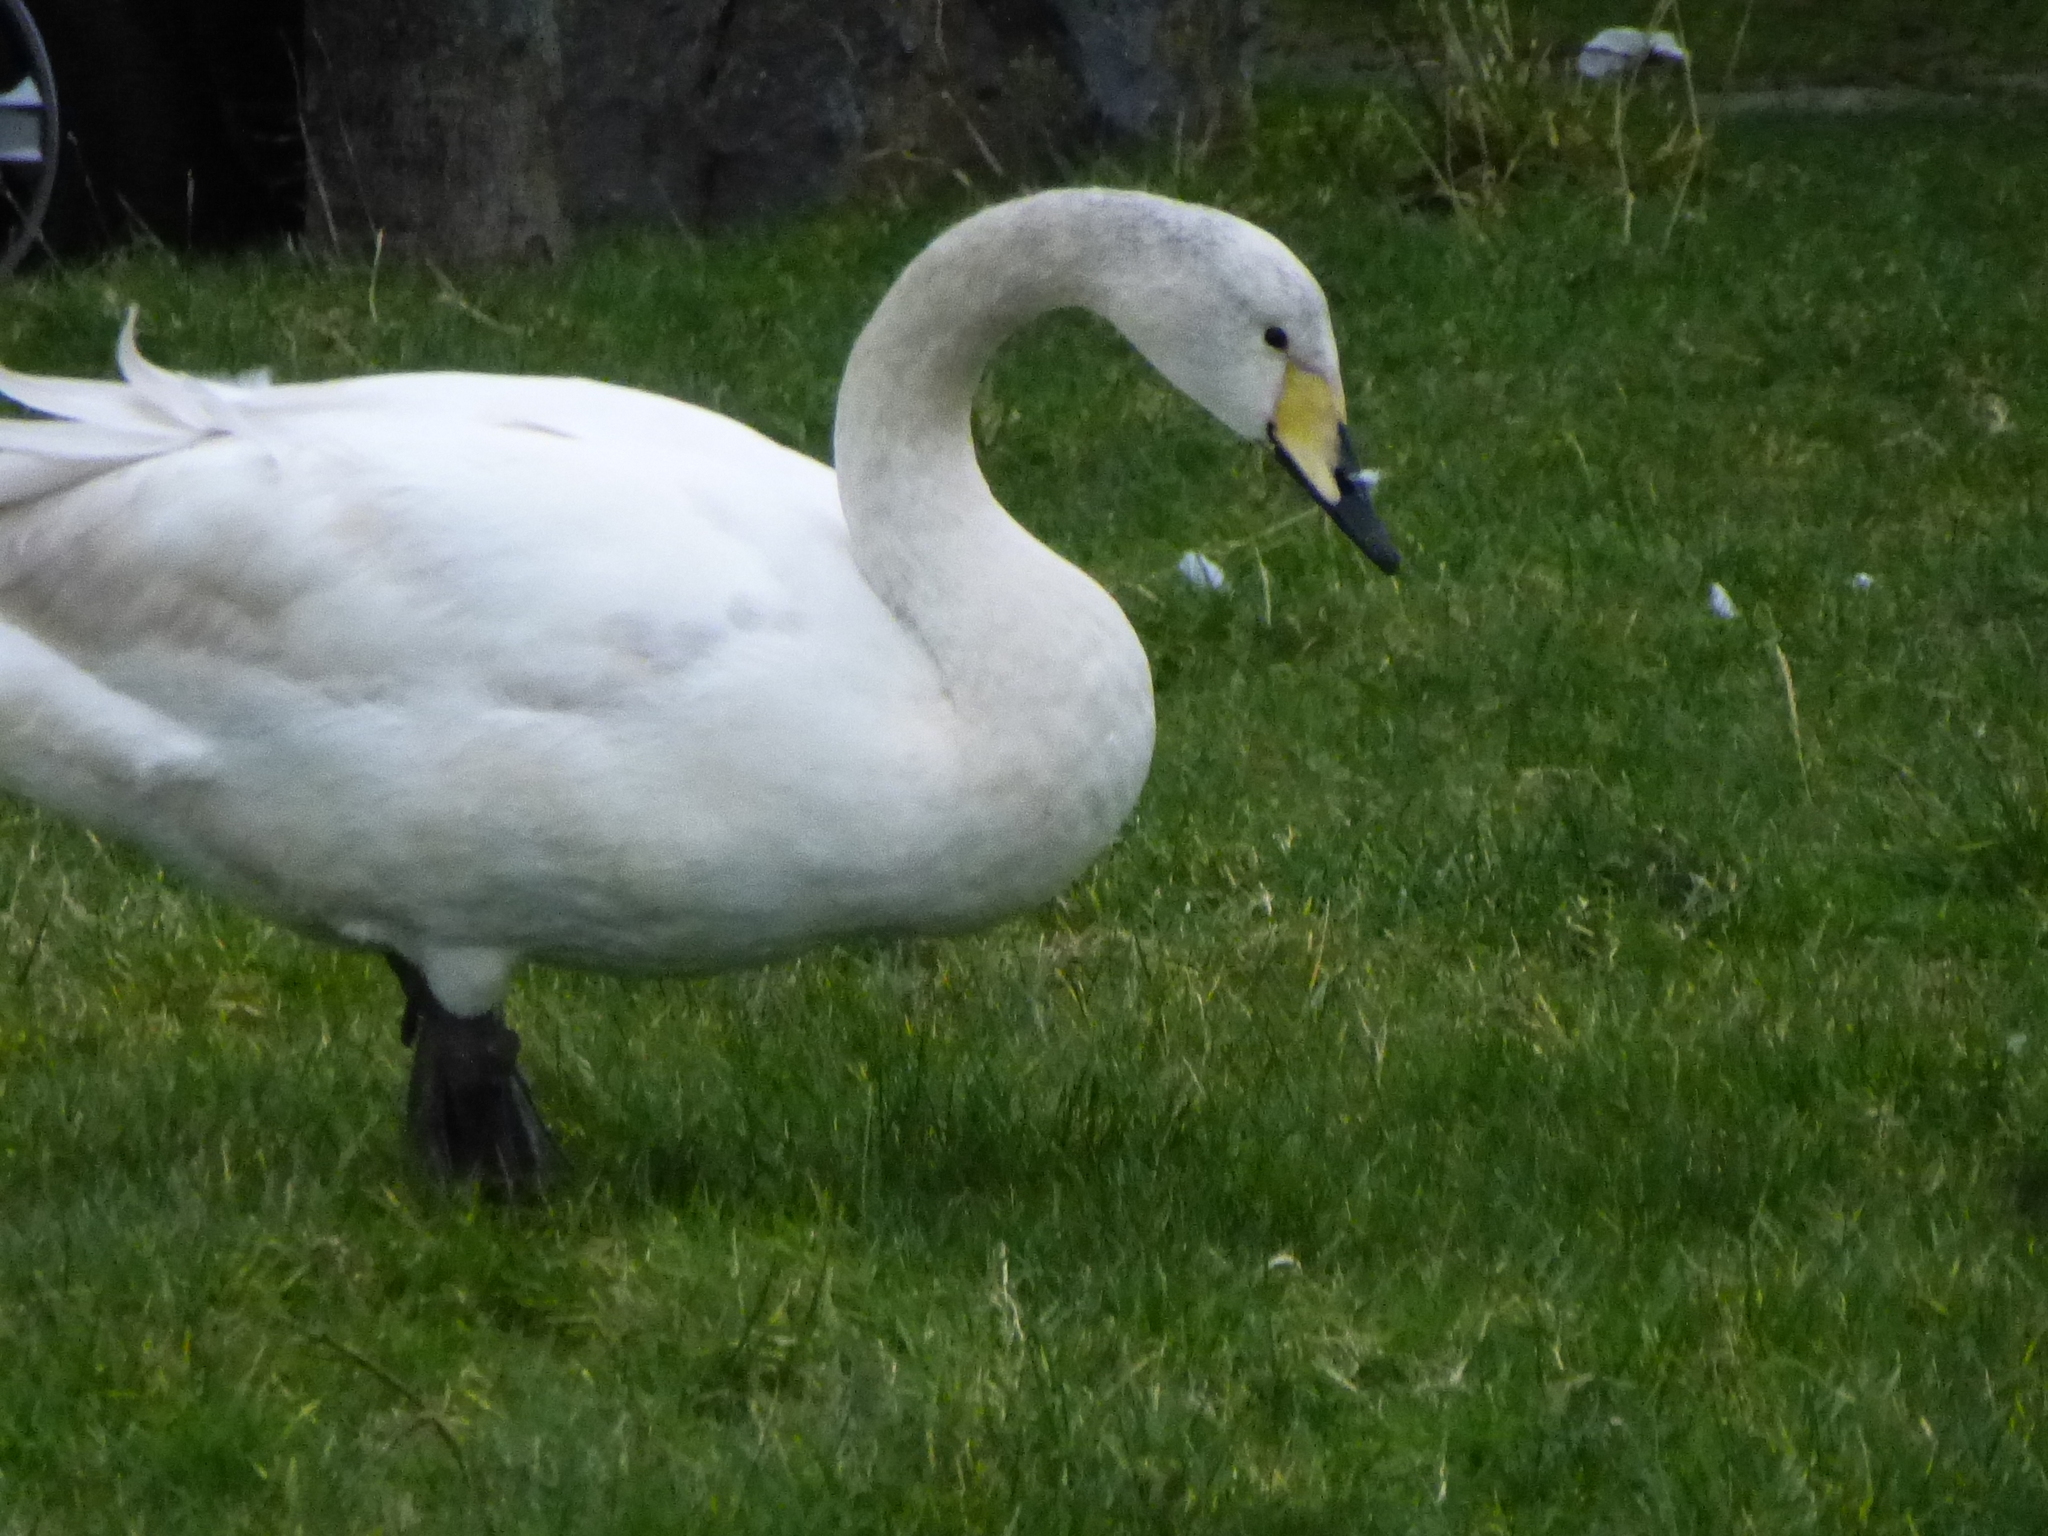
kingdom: Animalia
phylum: Chordata
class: Aves
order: Anseriformes
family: Anatidae
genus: Cygnus
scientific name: Cygnus olor
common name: Mute swan
